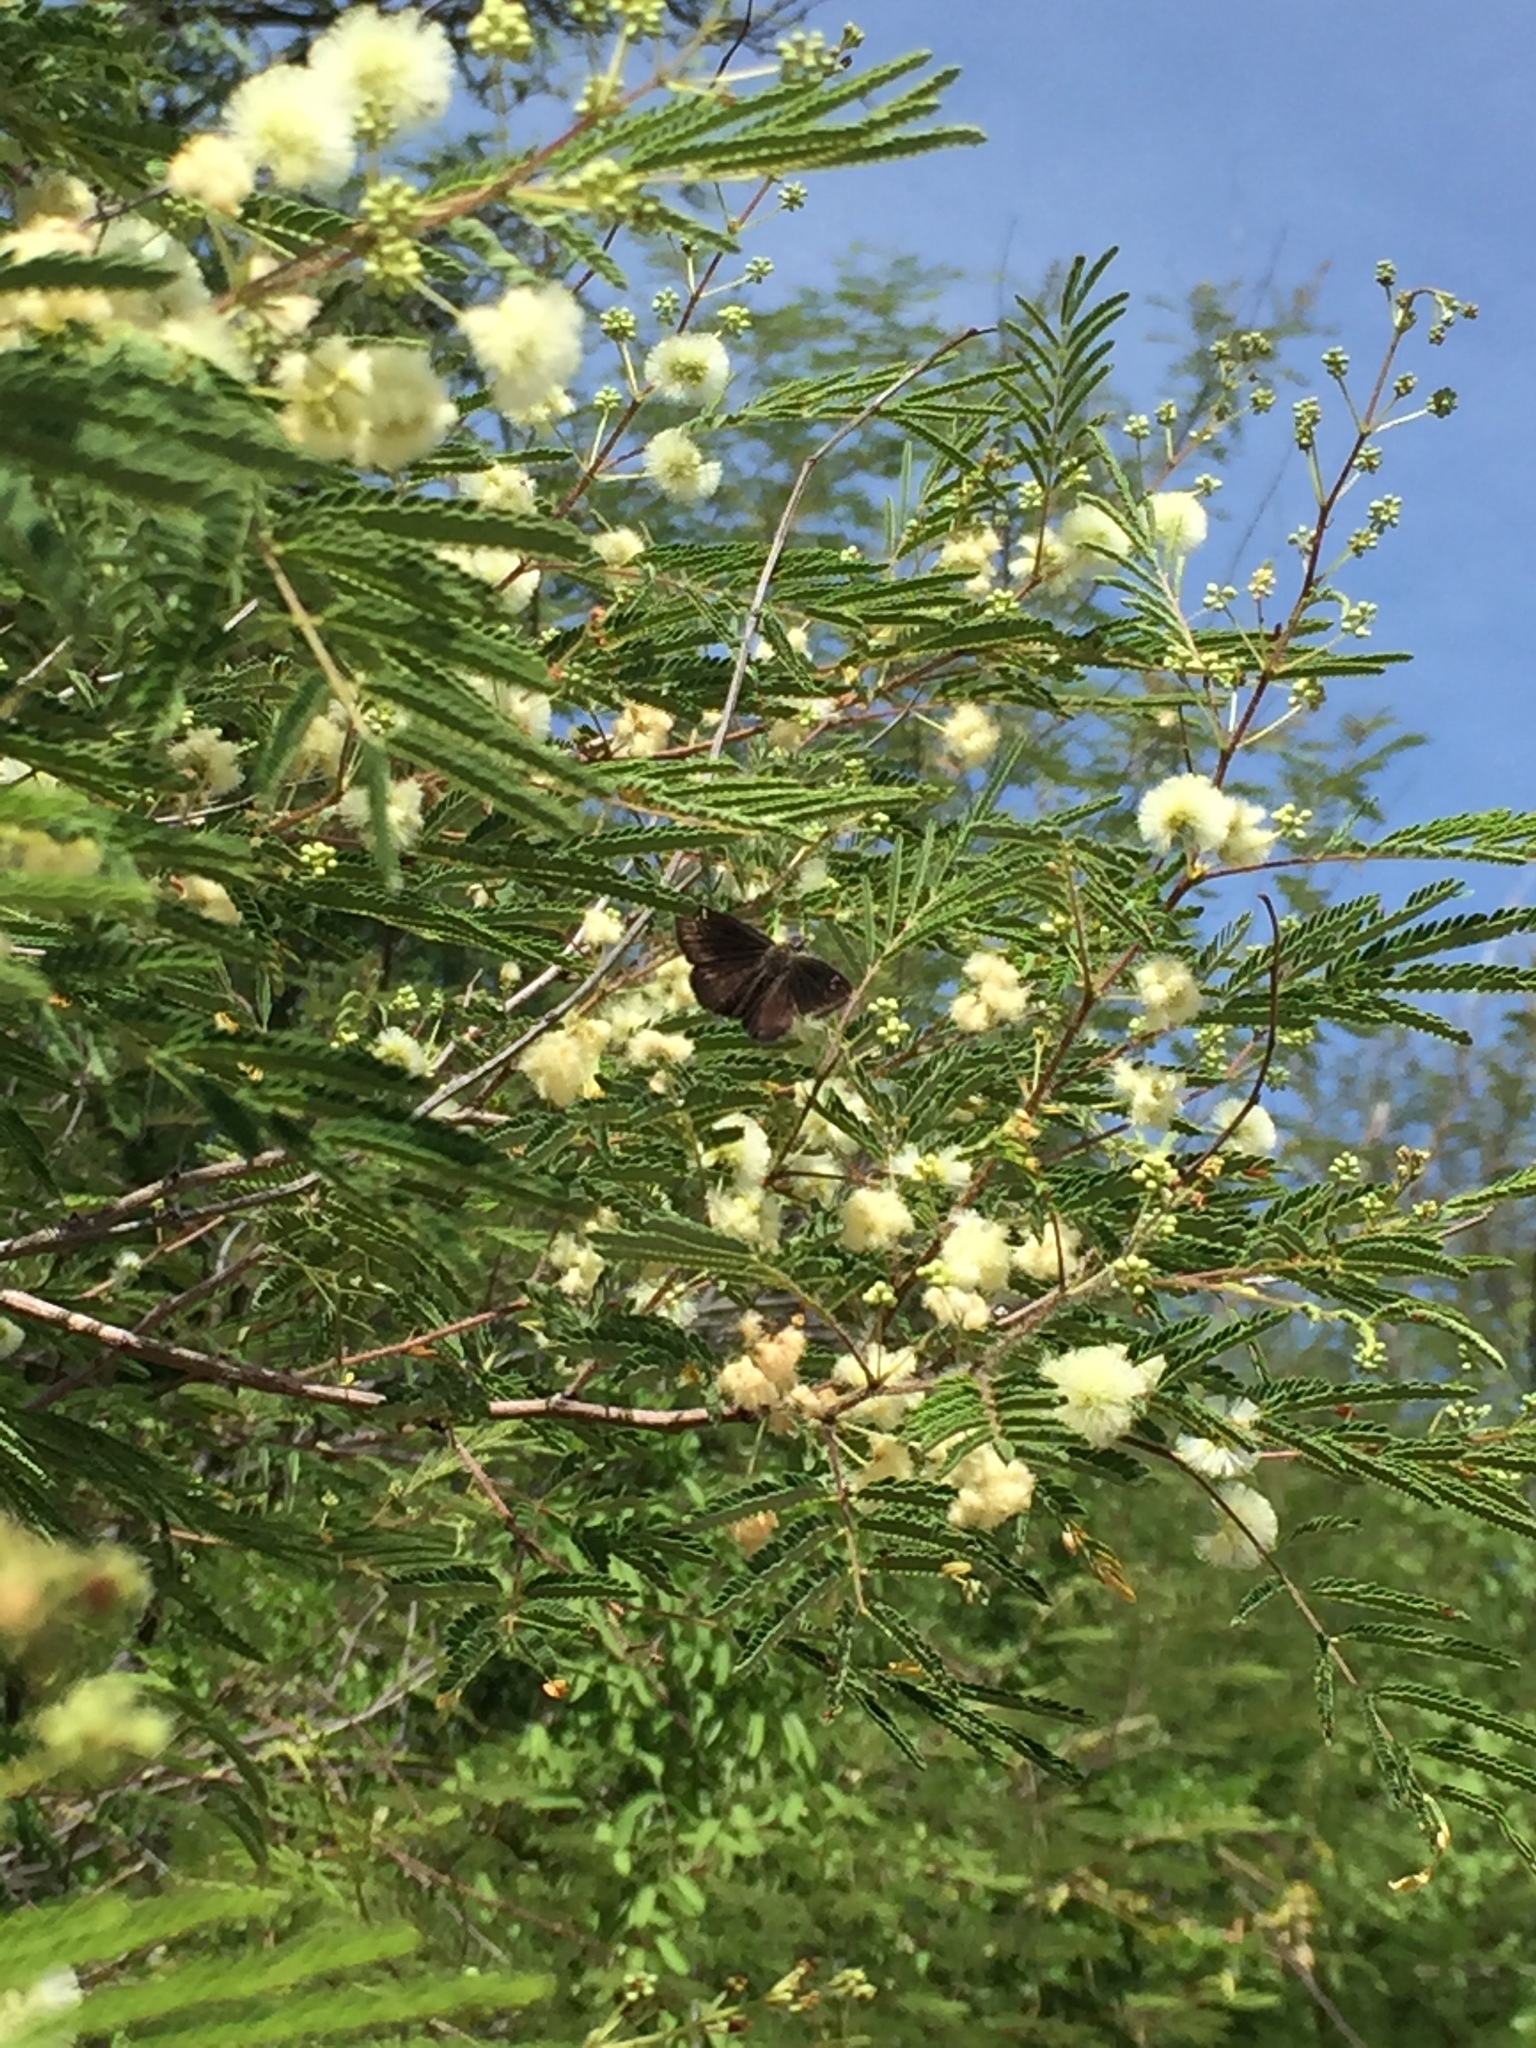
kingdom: Animalia
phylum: Arthropoda
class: Insecta
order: Lepidoptera
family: Hesperiidae
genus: Pholisora
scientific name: Pholisora catullus
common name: Common sootywing
